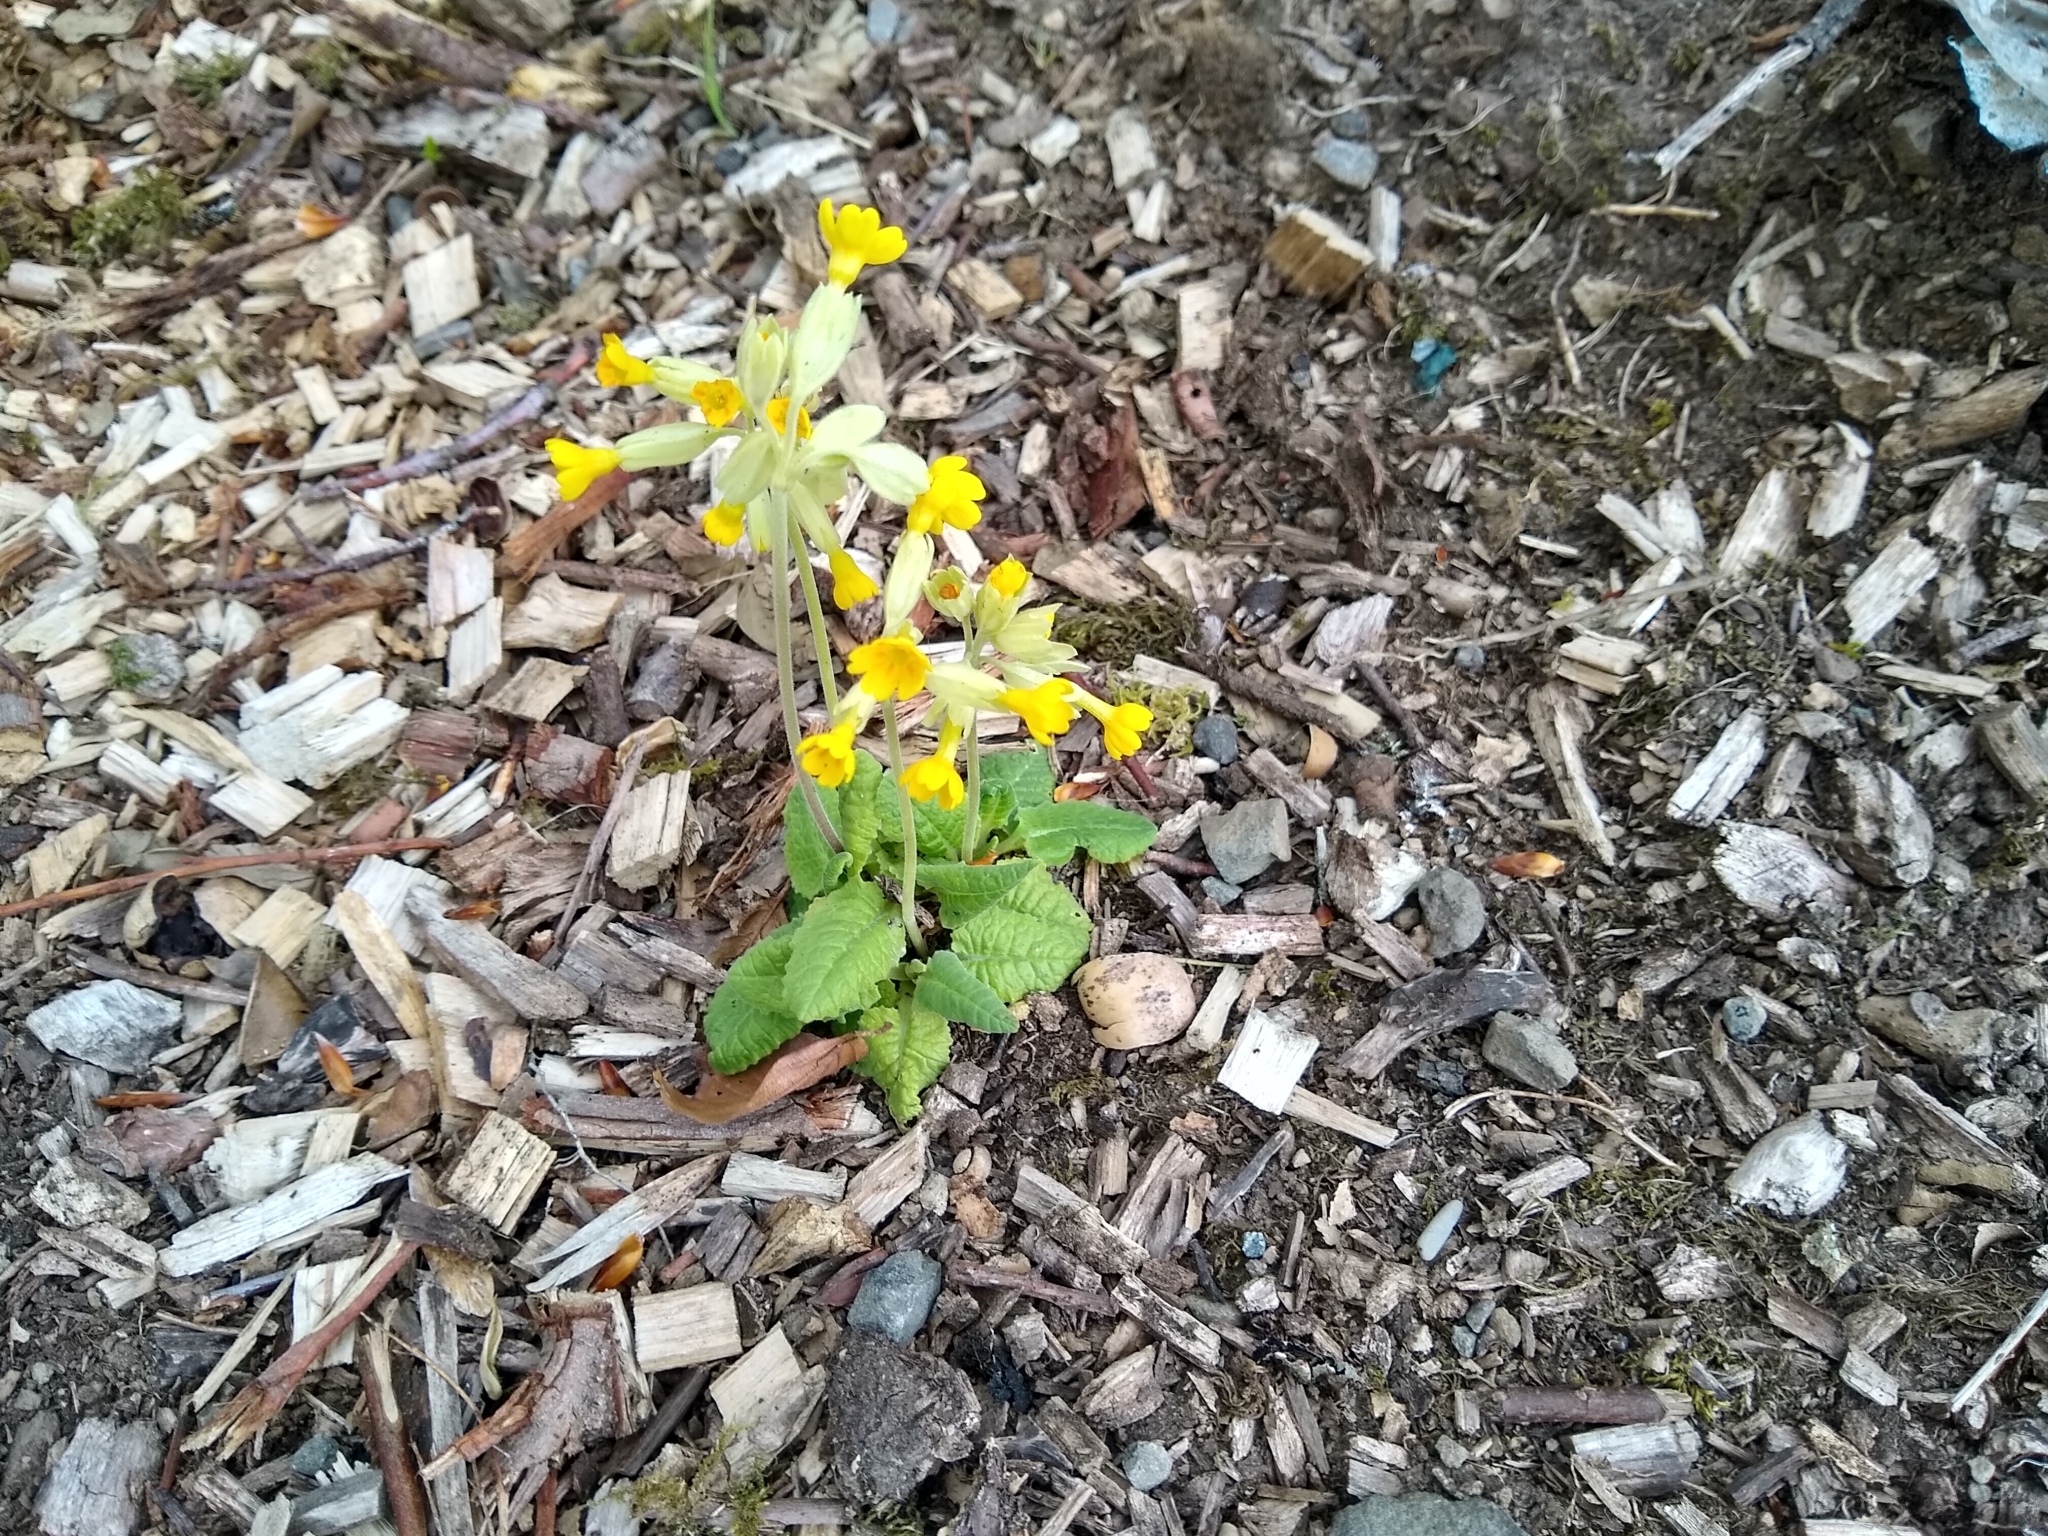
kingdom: Plantae
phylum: Tracheophyta
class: Magnoliopsida
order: Ericales
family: Primulaceae
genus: Primula
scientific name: Primula veris
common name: Cowslip
